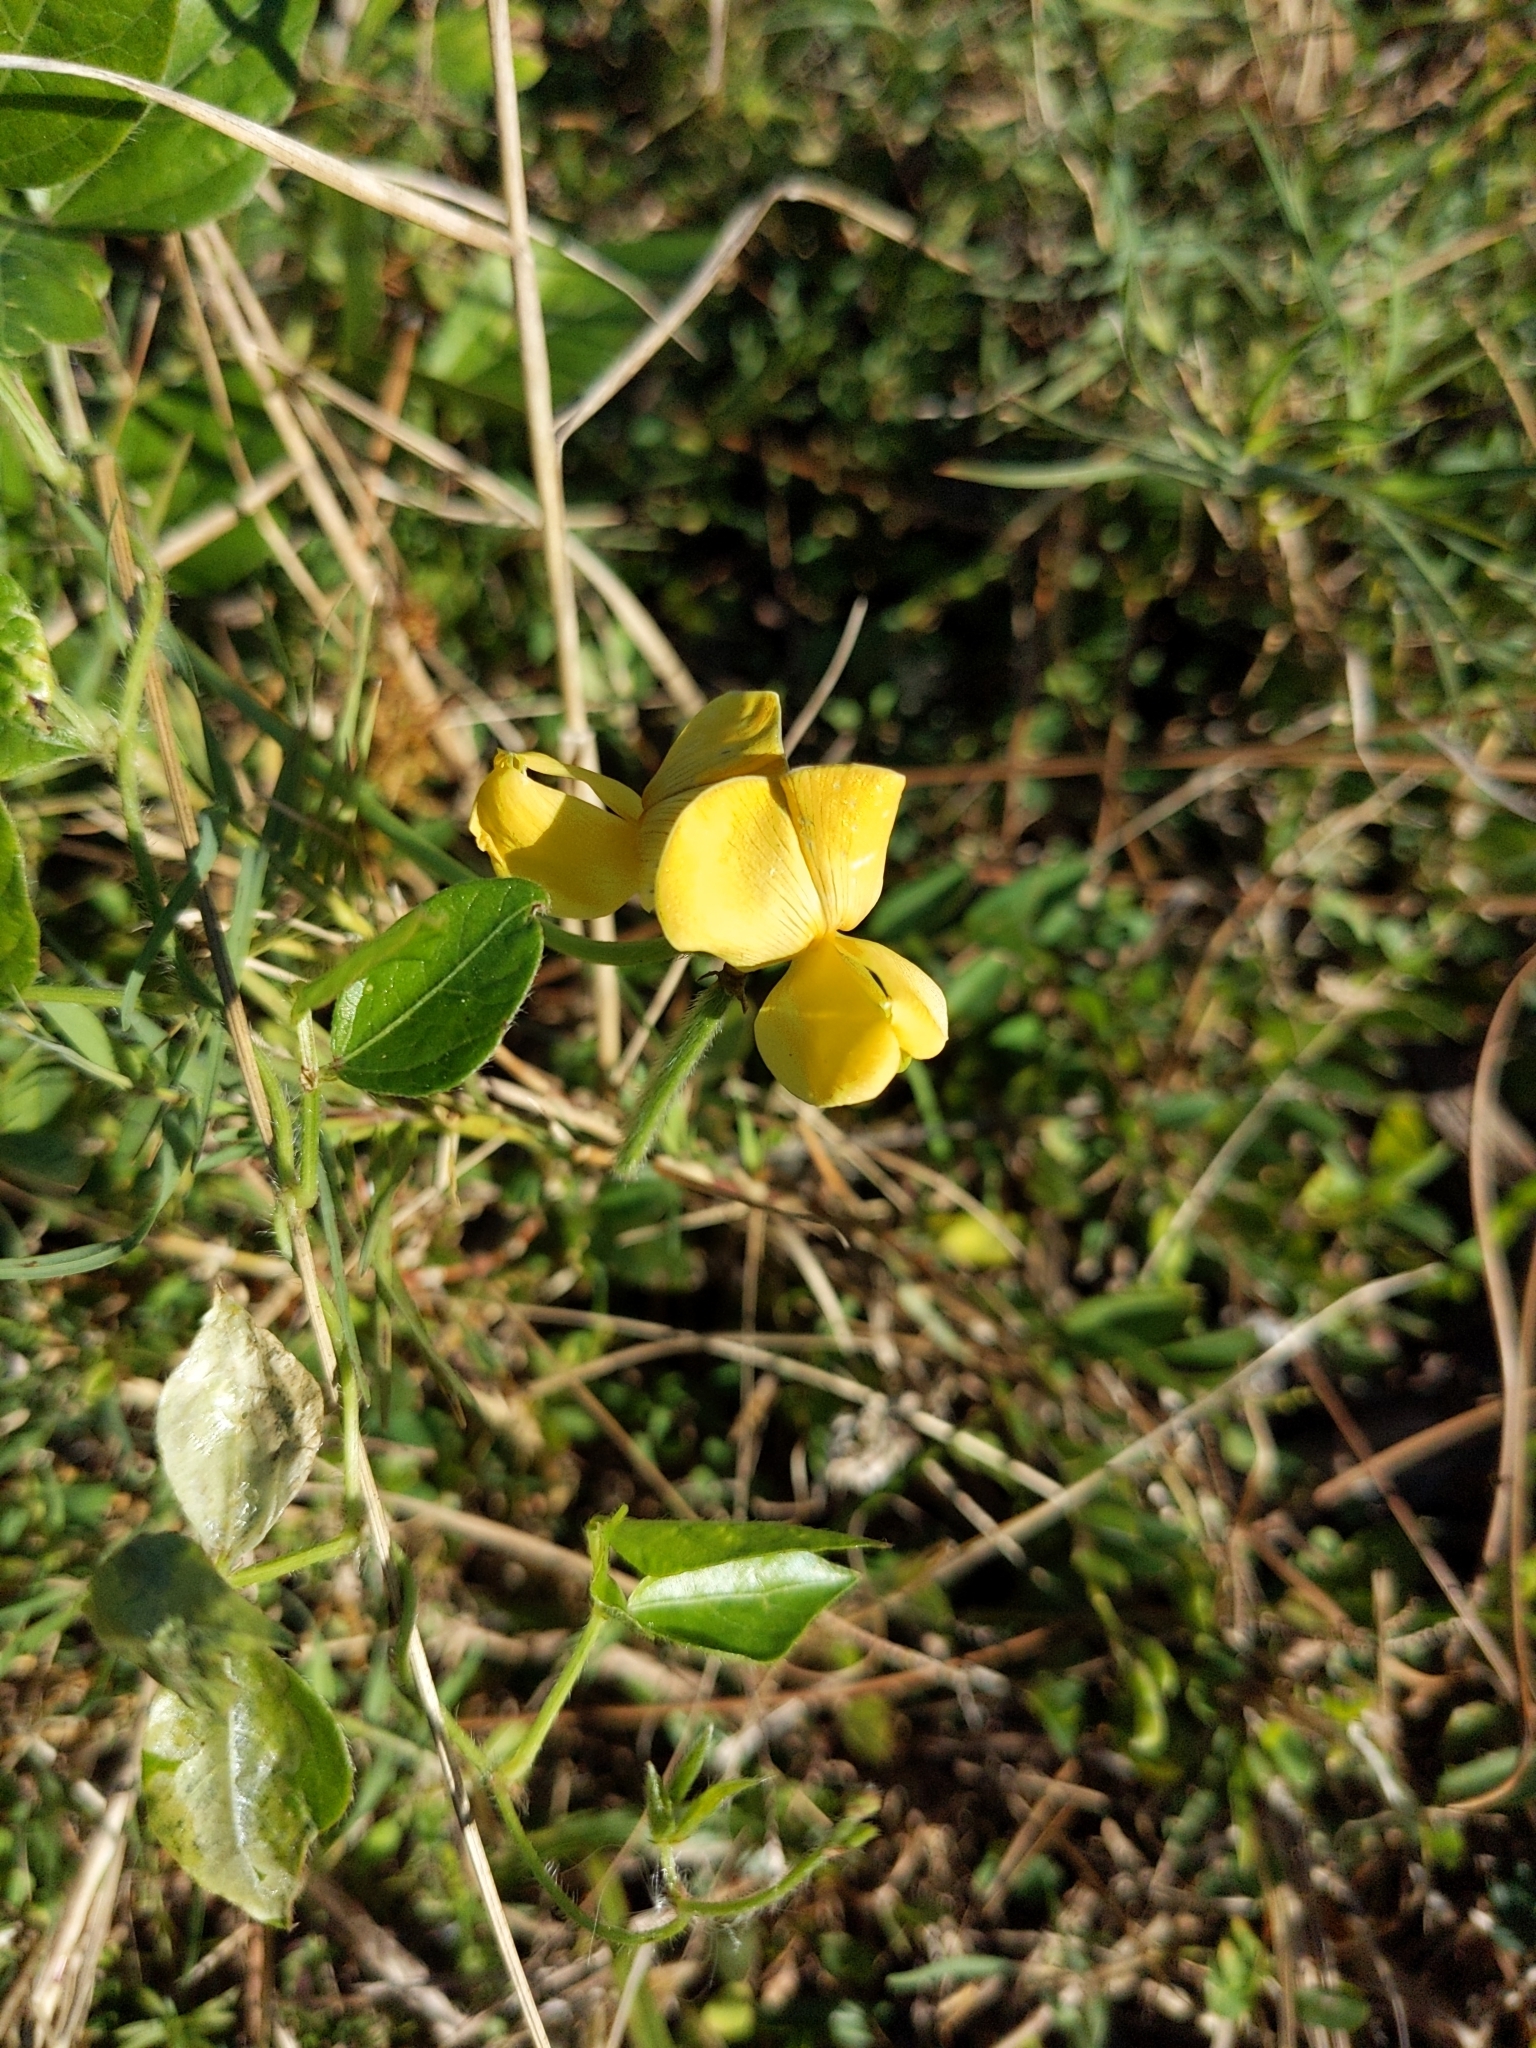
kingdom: Plantae
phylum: Tracheophyta
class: Magnoliopsida
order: Fabales
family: Fabaceae
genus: Vigna
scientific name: Vigna luteola
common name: Hairypod cowpea
